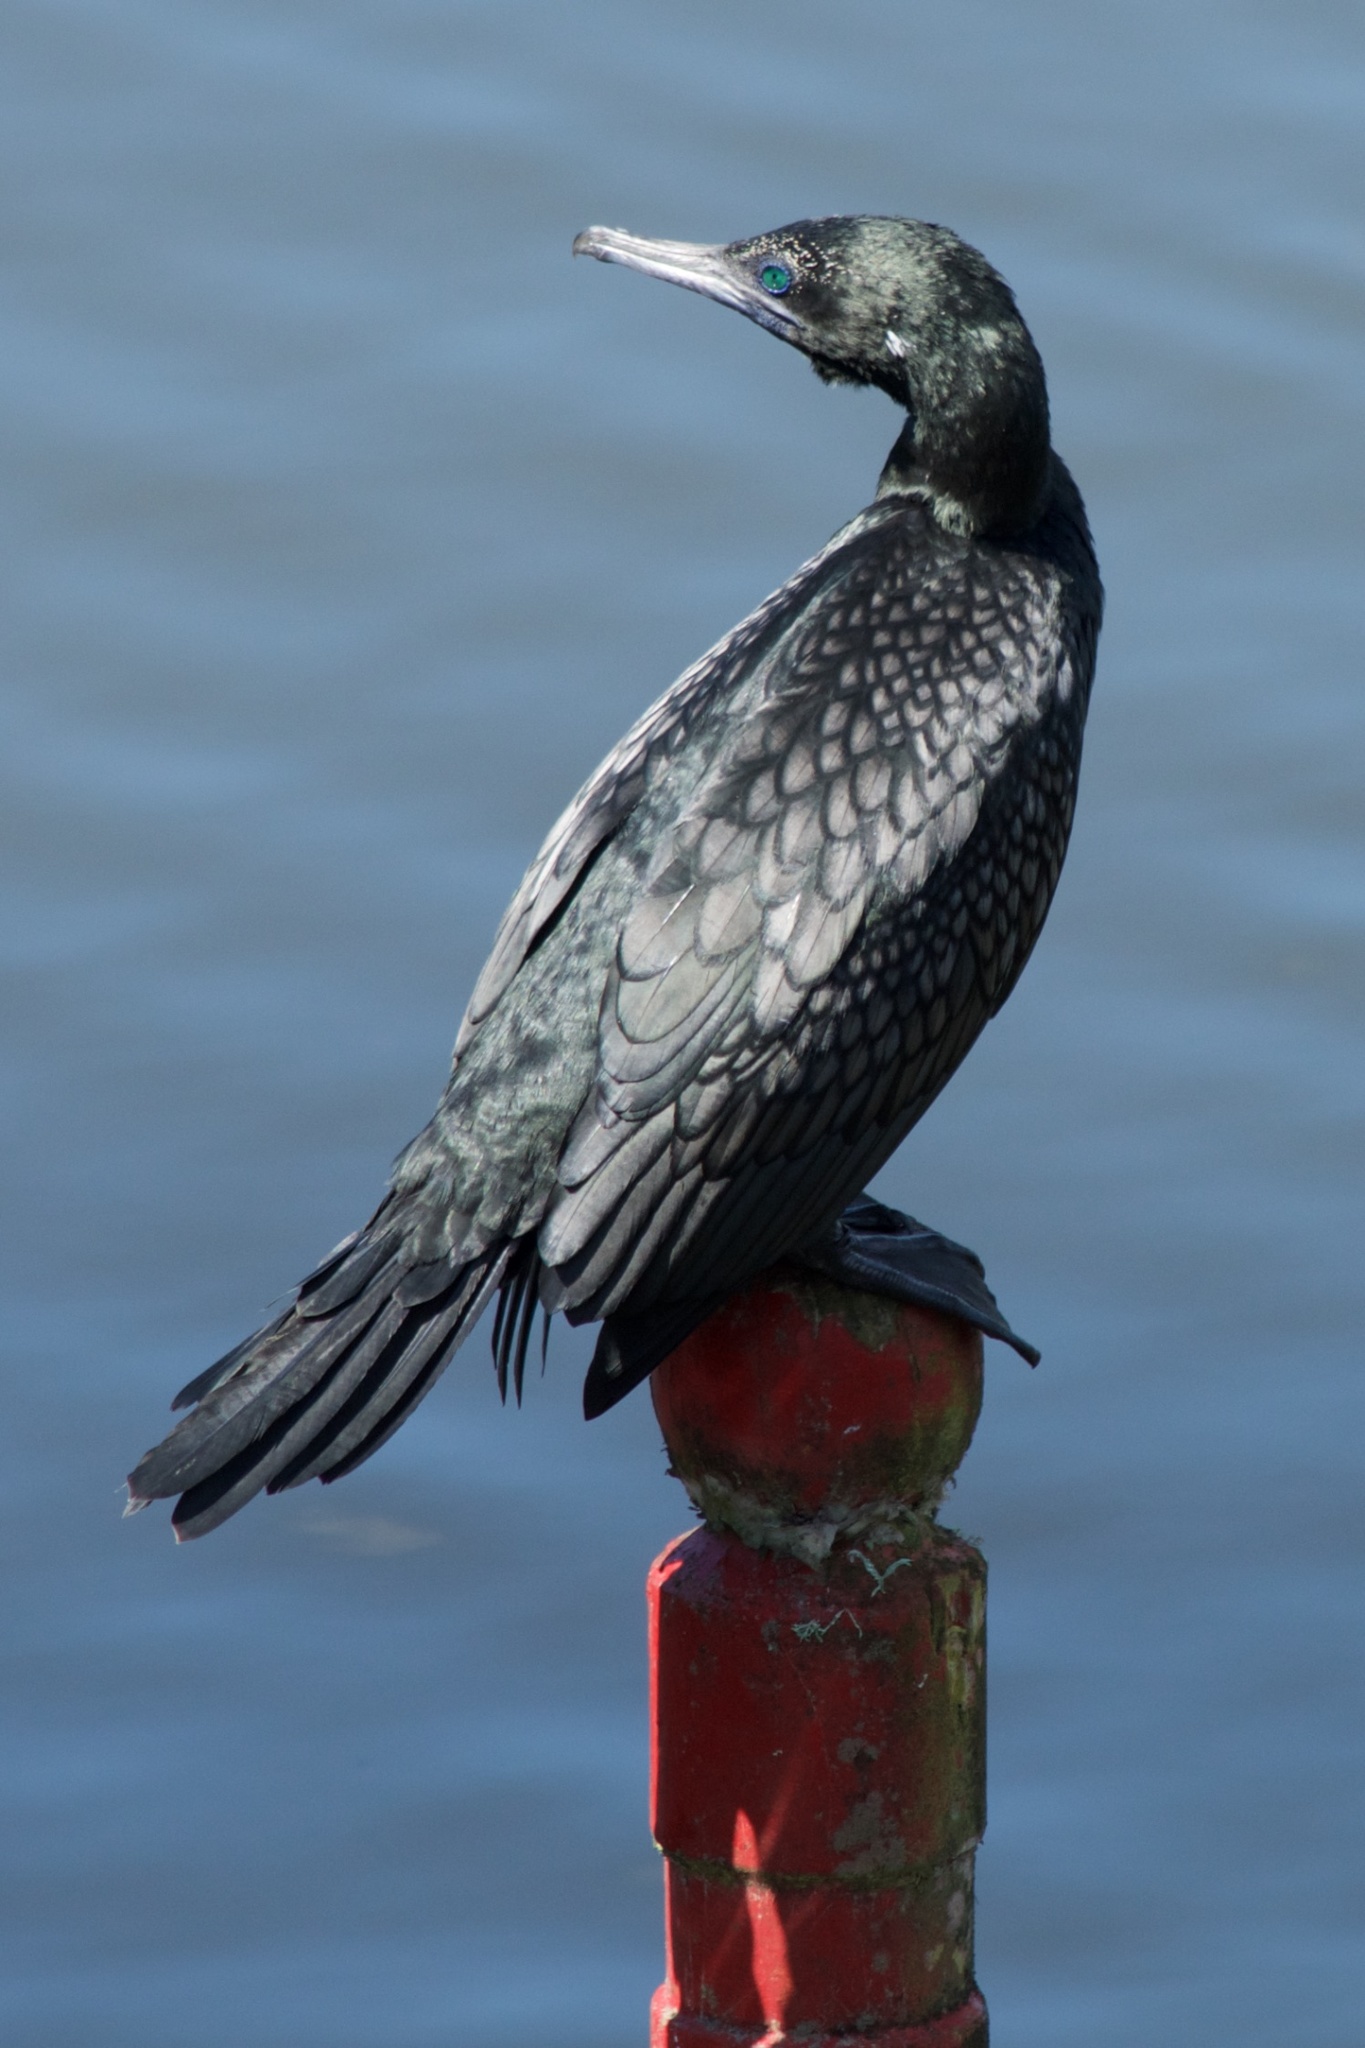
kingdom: Animalia
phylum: Chordata
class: Aves
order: Suliformes
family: Phalacrocoracidae
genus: Phalacrocorax
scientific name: Phalacrocorax sulcirostris
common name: Little black cormorant
